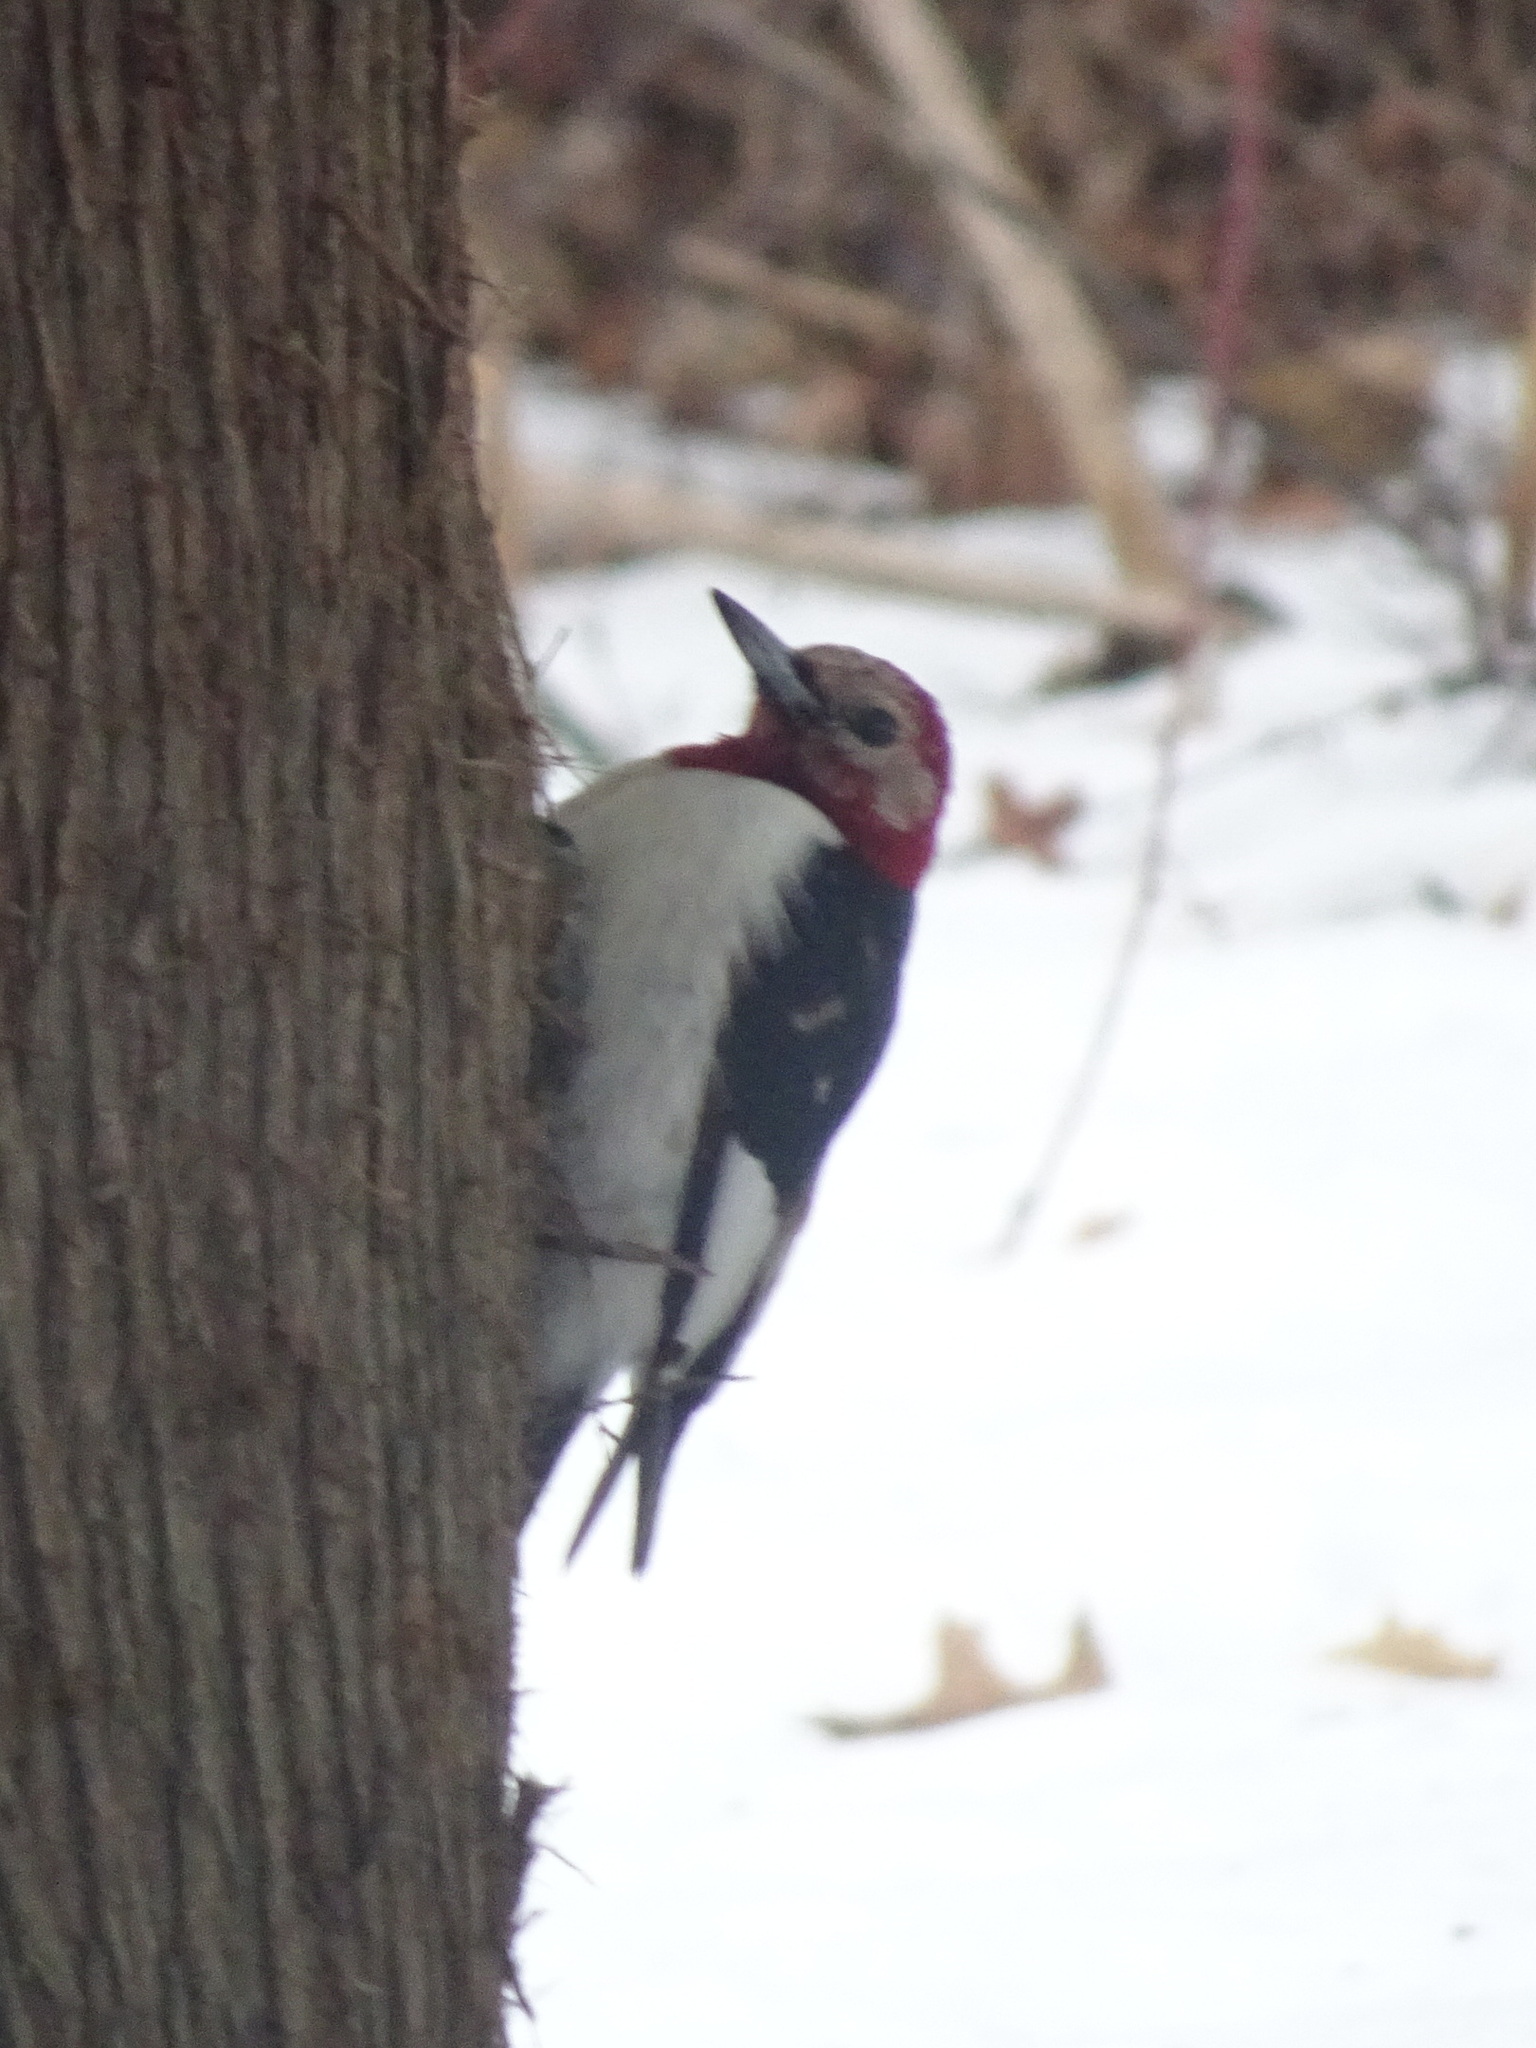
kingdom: Animalia
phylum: Chordata
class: Aves
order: Piciformes
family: Picidae
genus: Melanerpes
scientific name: Melanerpes erythrocephalus
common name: Red-headed woodpecker
